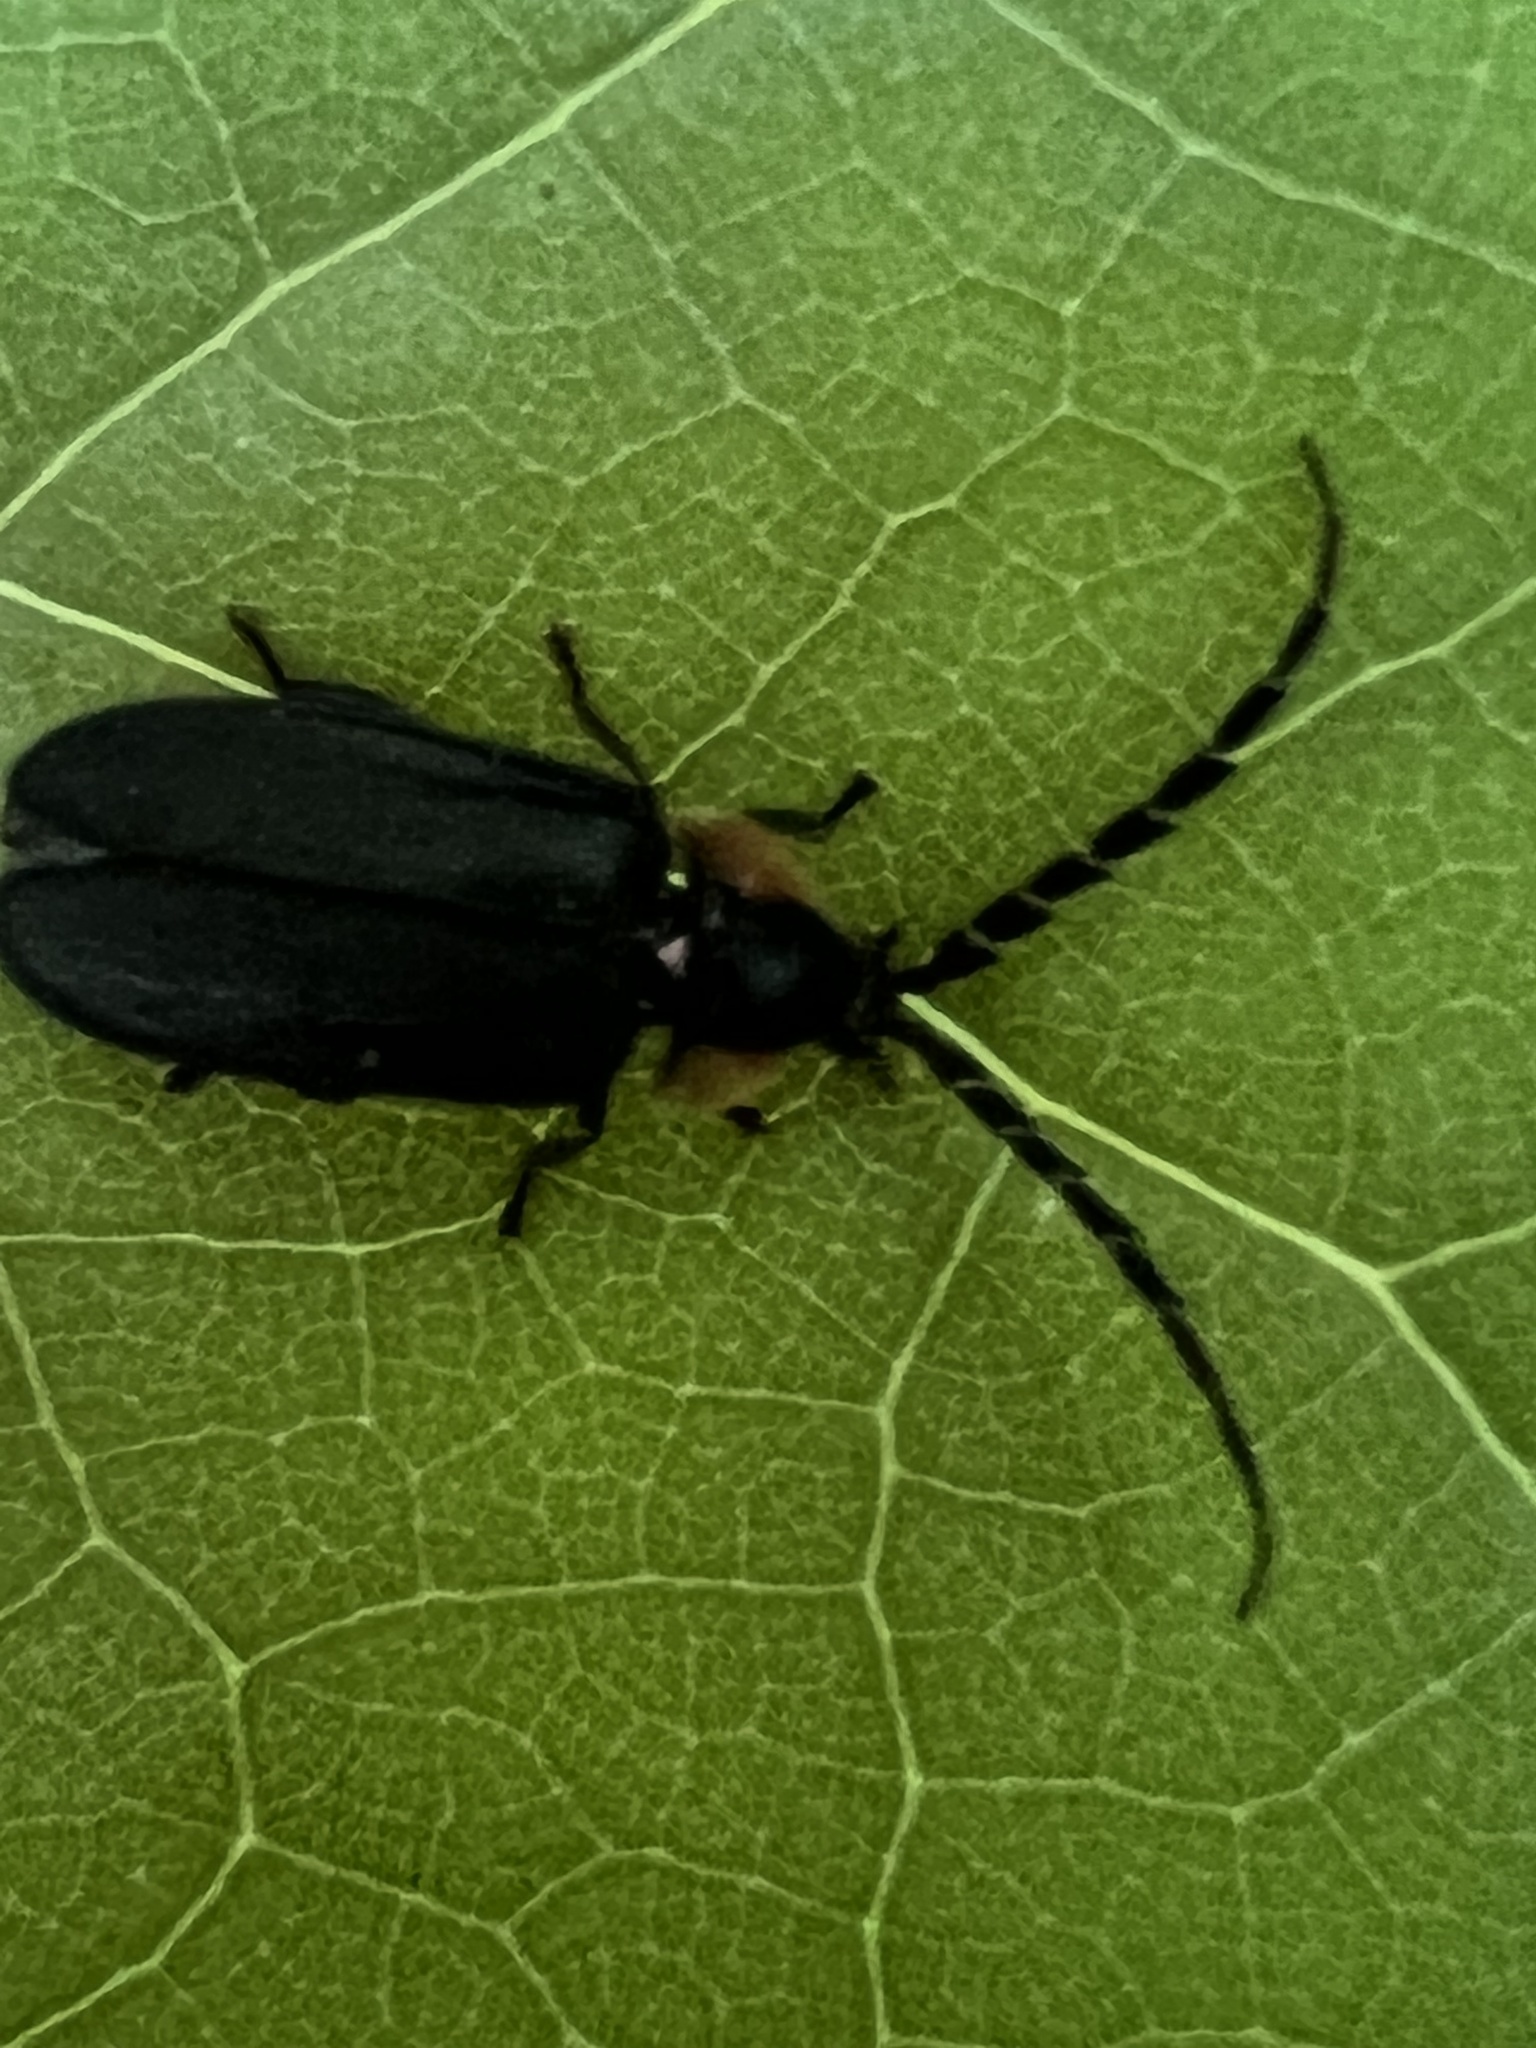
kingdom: Animalia
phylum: Arthropoda
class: Insecta
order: Coleoptera
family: Lampyridae
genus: Lucidota
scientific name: Lucidota atra
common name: Black firefly
